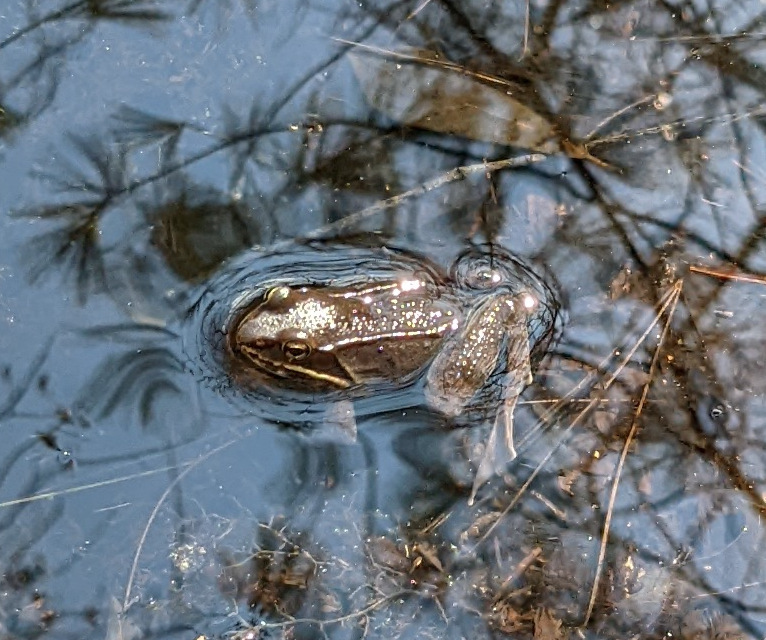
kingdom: Animalia
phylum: Chordata
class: Amphibia
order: Anura
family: Ranidae
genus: Lithobates
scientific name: Lithobates sylvaticus
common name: Wood frog
